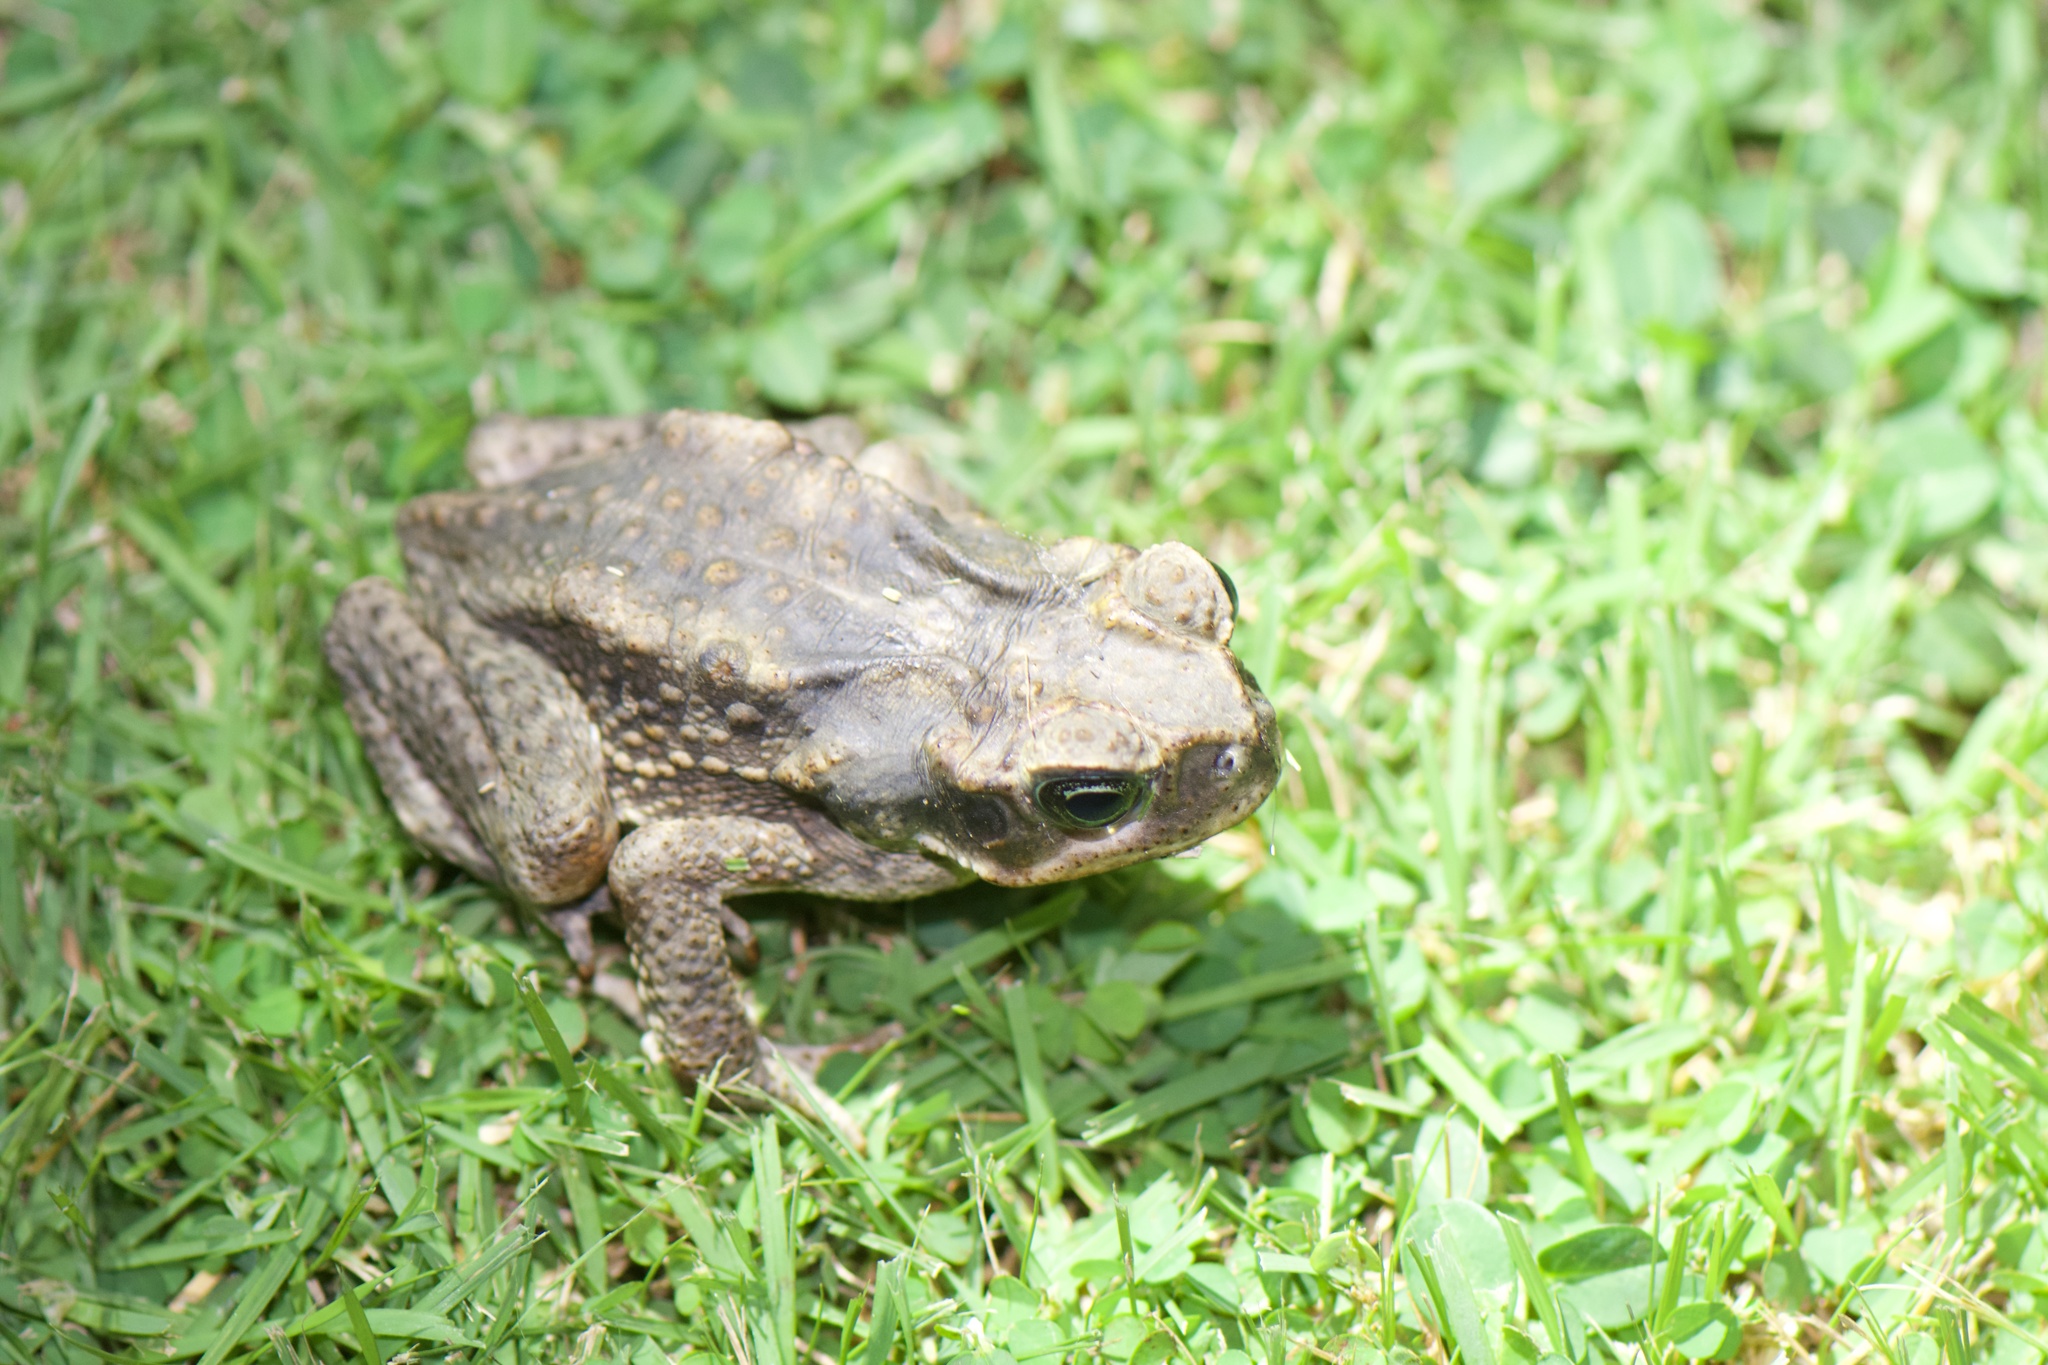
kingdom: Animalia
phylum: Chordata
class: Amphibia
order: Anura
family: Bufonidae
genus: Rhinella
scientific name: Rhinella horribilis
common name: Mesoamerican cane toad
